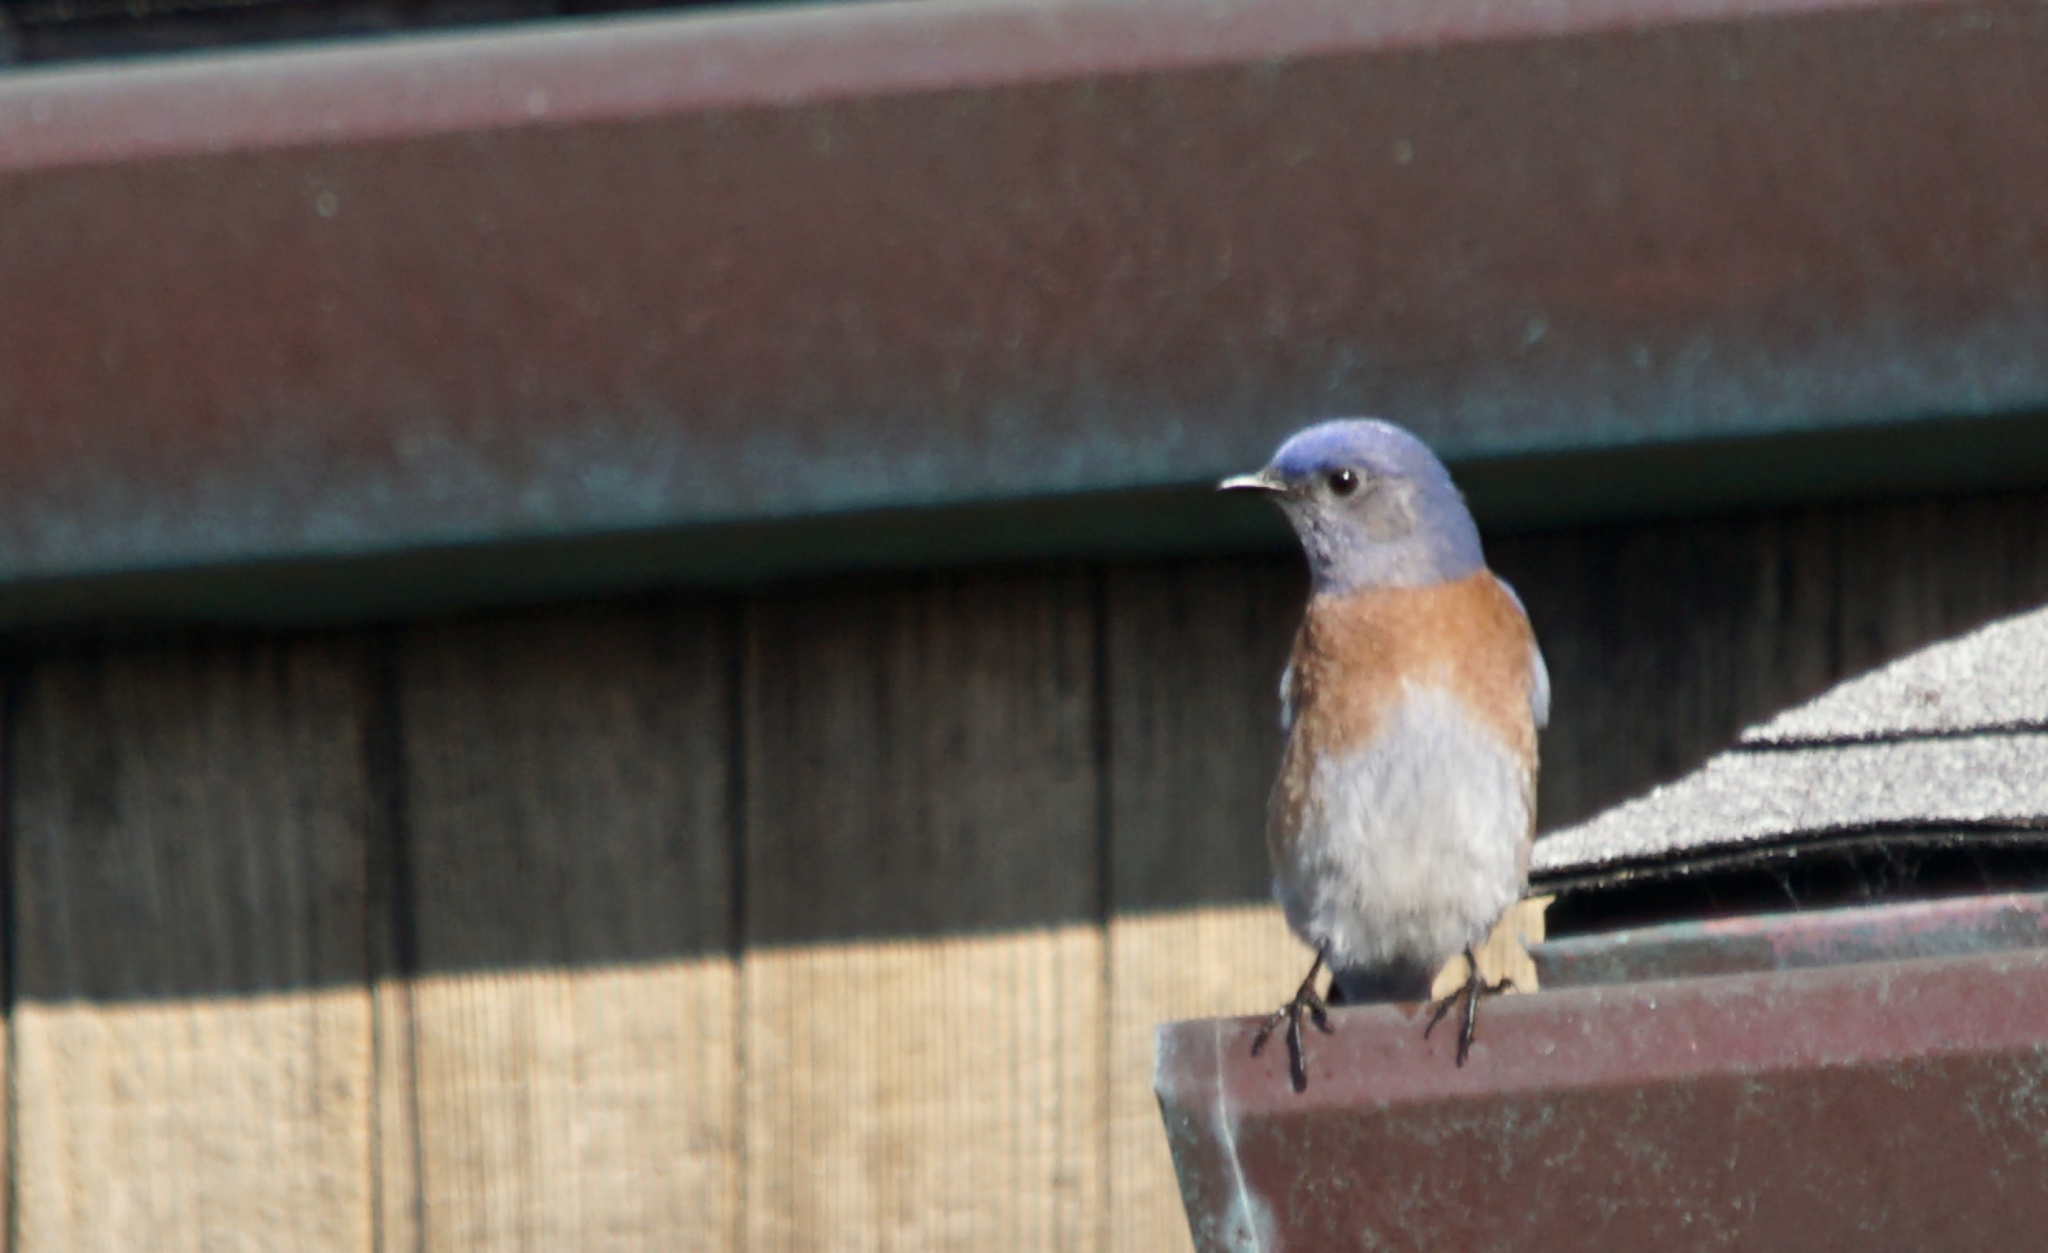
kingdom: Animalia
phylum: Chordata
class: Aves
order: Passeriformes
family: Turdidae
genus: Sialia
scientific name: Sialia mexicana
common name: Western bluebird
